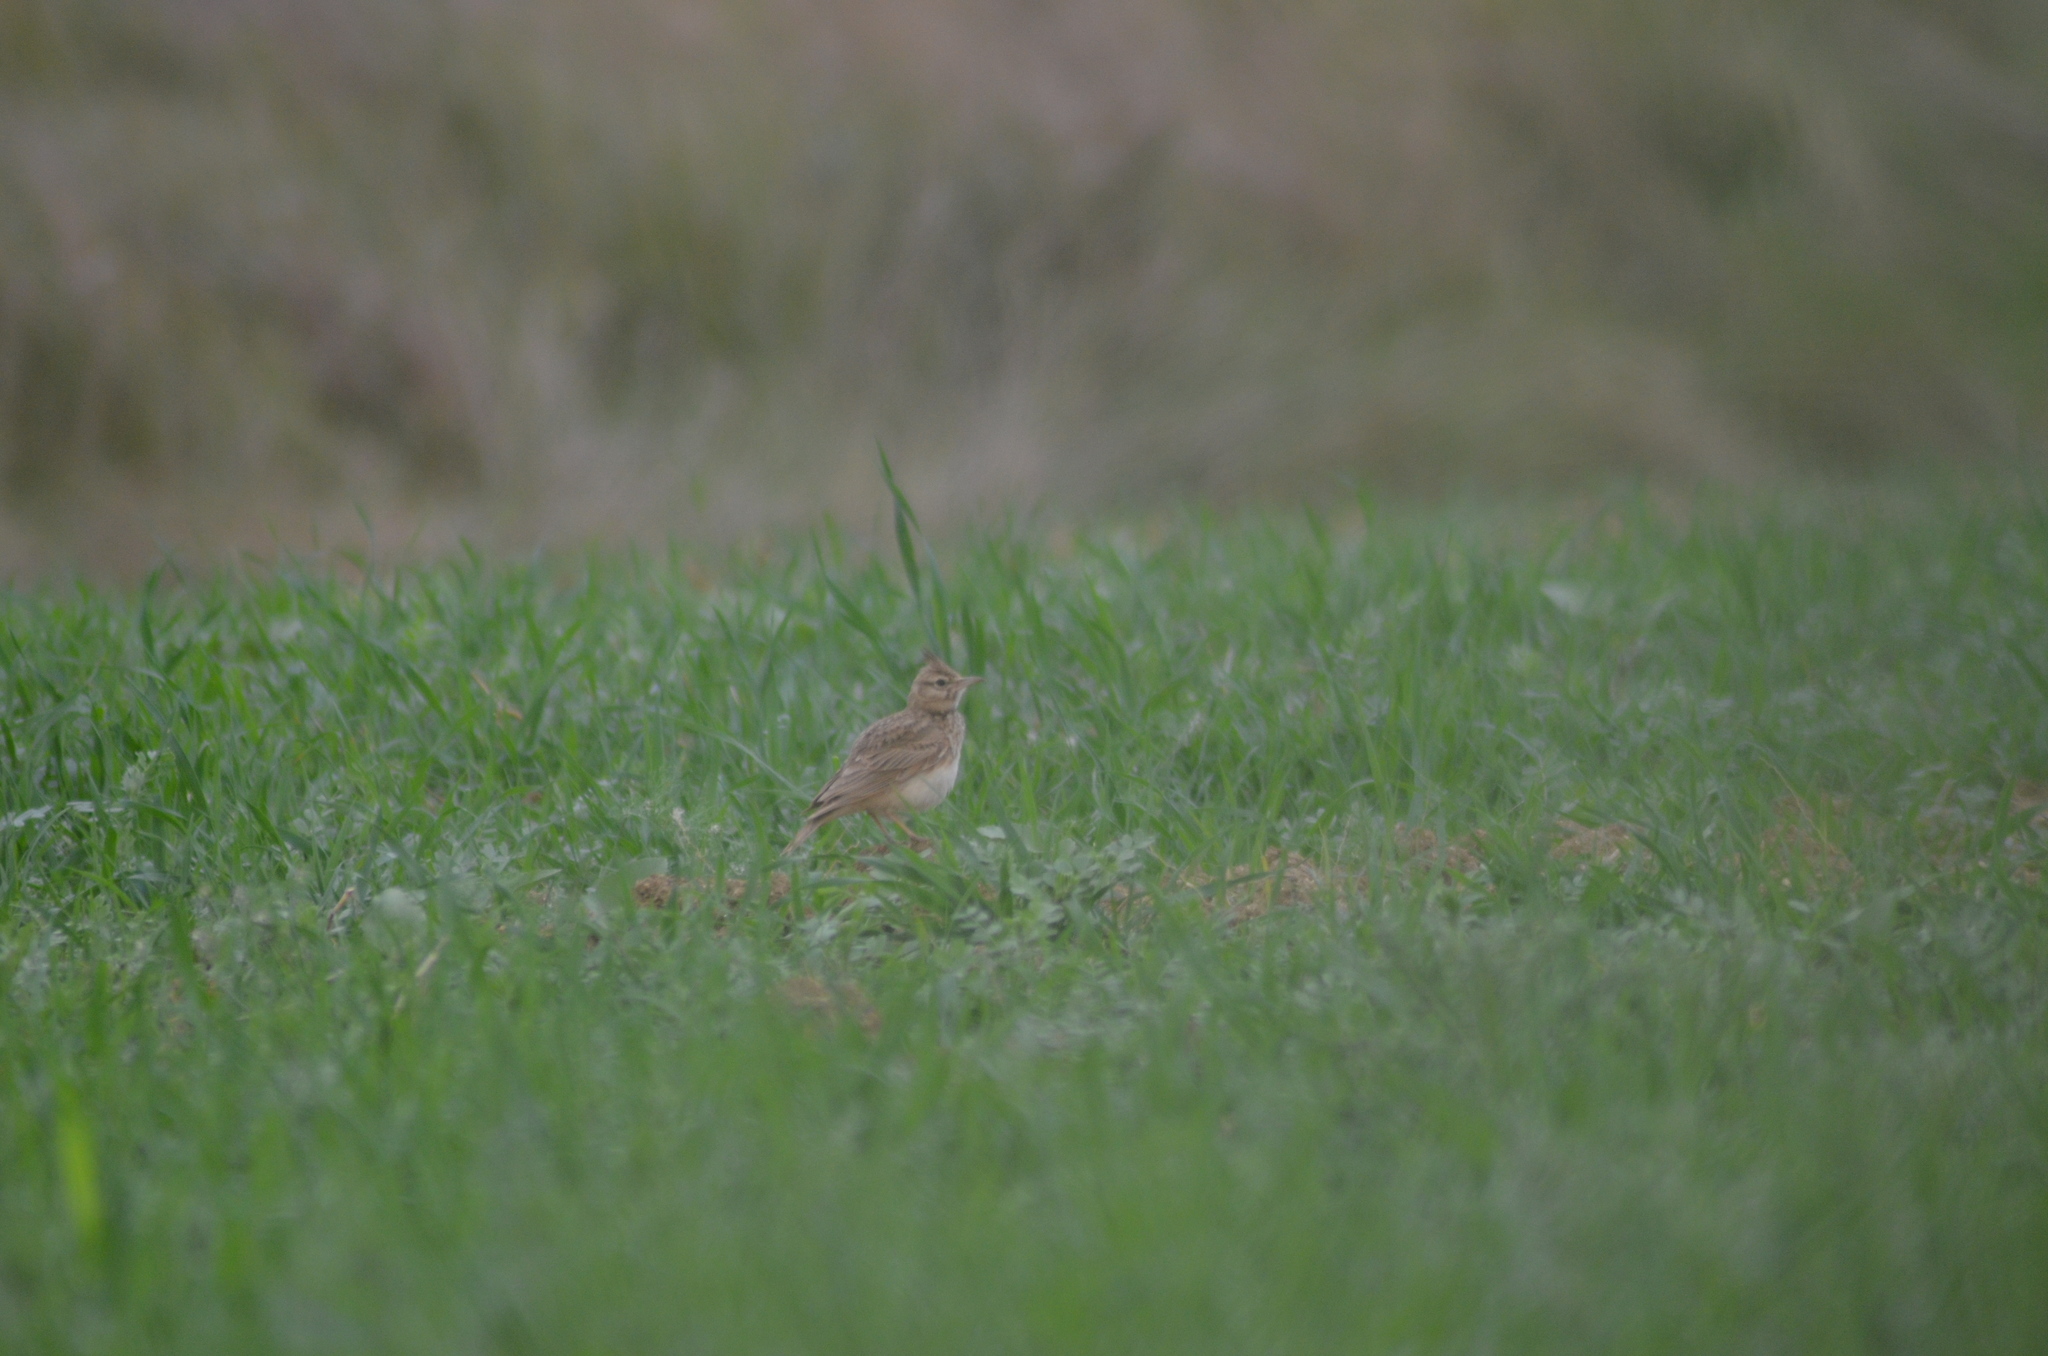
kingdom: Animalia
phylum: Chordata
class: Aves
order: Passeriformes
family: Alaudidae
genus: Galerida
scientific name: Galerida cristata
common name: Crested lark
